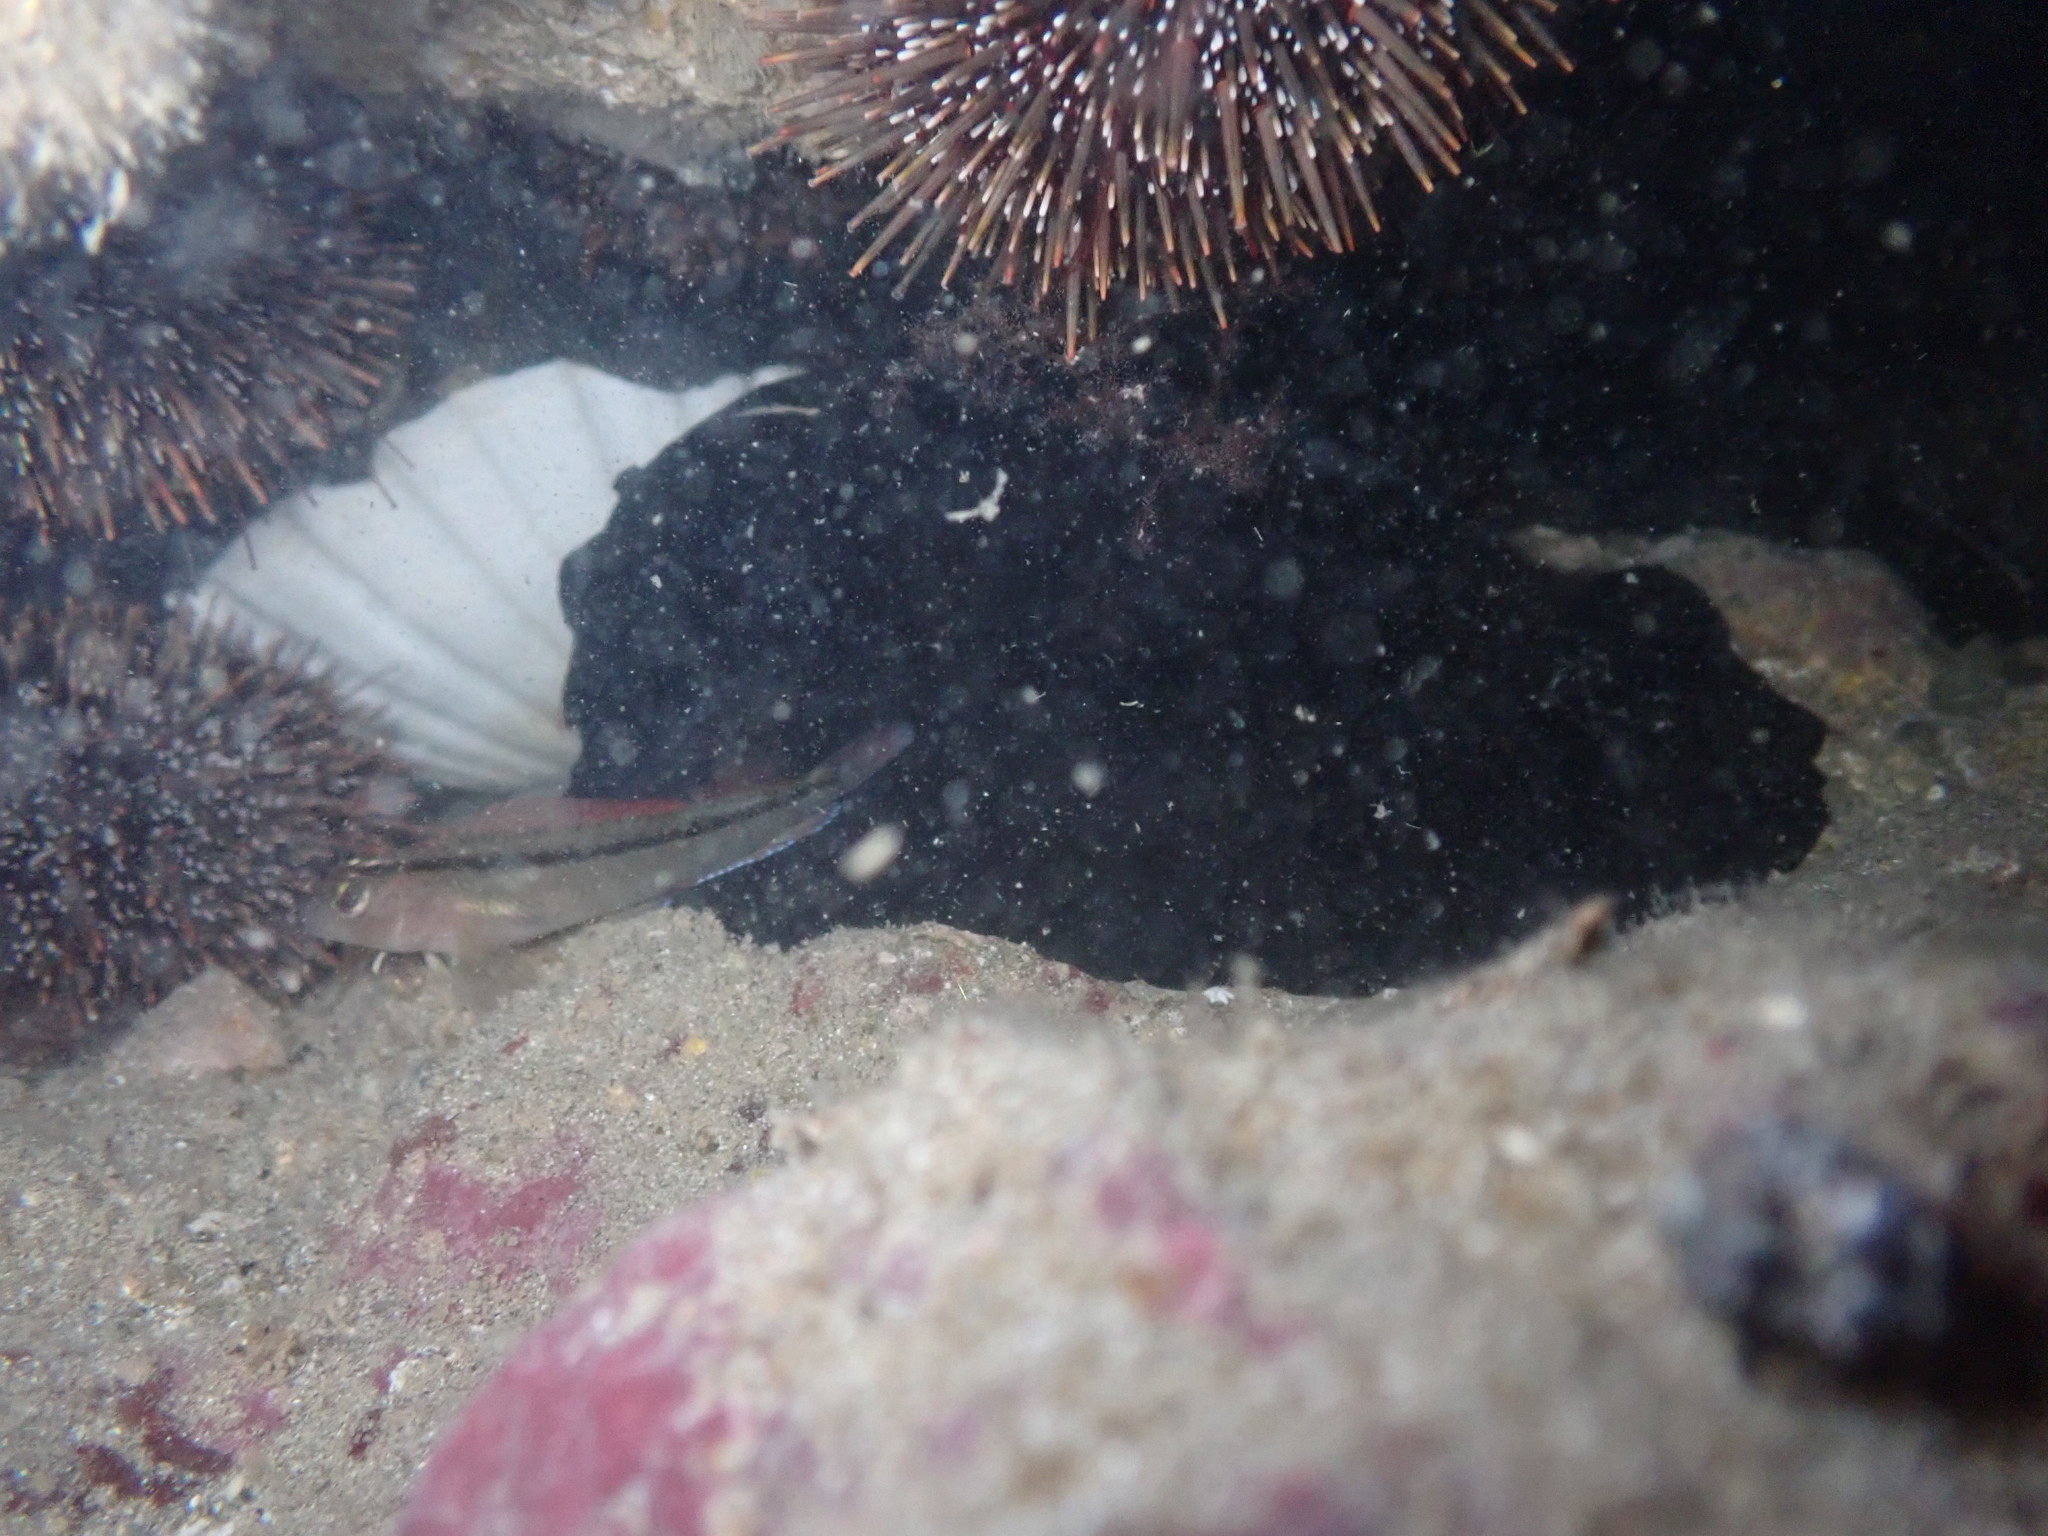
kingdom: Animalia
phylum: Mollusca
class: Gastropoda
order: Lepetellida
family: Fissurellidae
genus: Scutus
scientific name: Scutus breviculus
